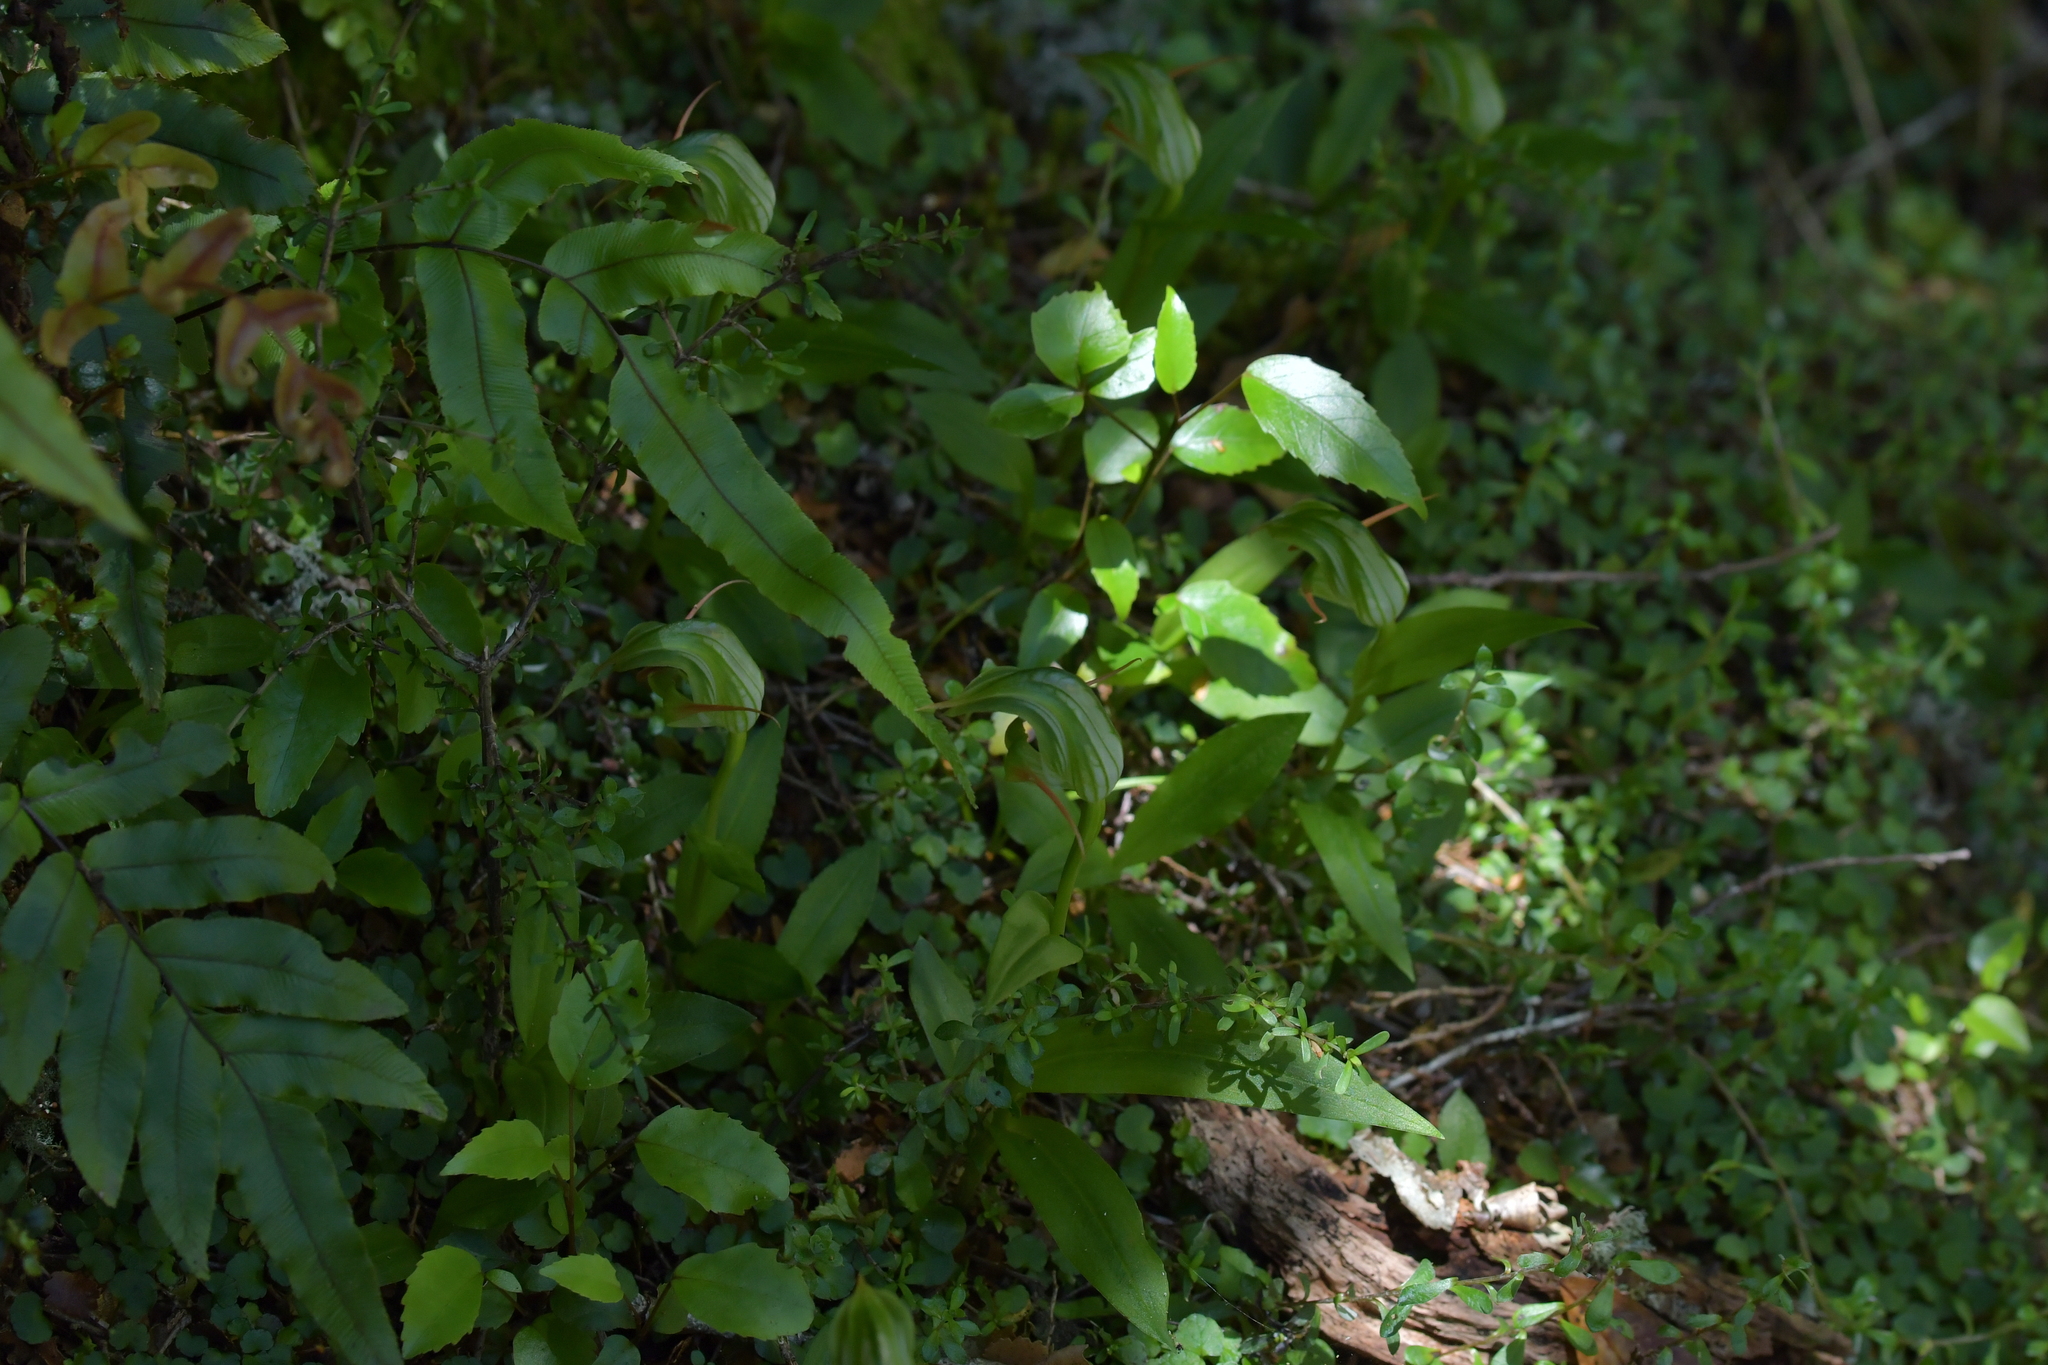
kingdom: Plantae
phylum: Tracheophyta
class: Liliopsida
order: Asparagales
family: Orchidaceae
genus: Pterostylis
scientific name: Pterostylis australis
